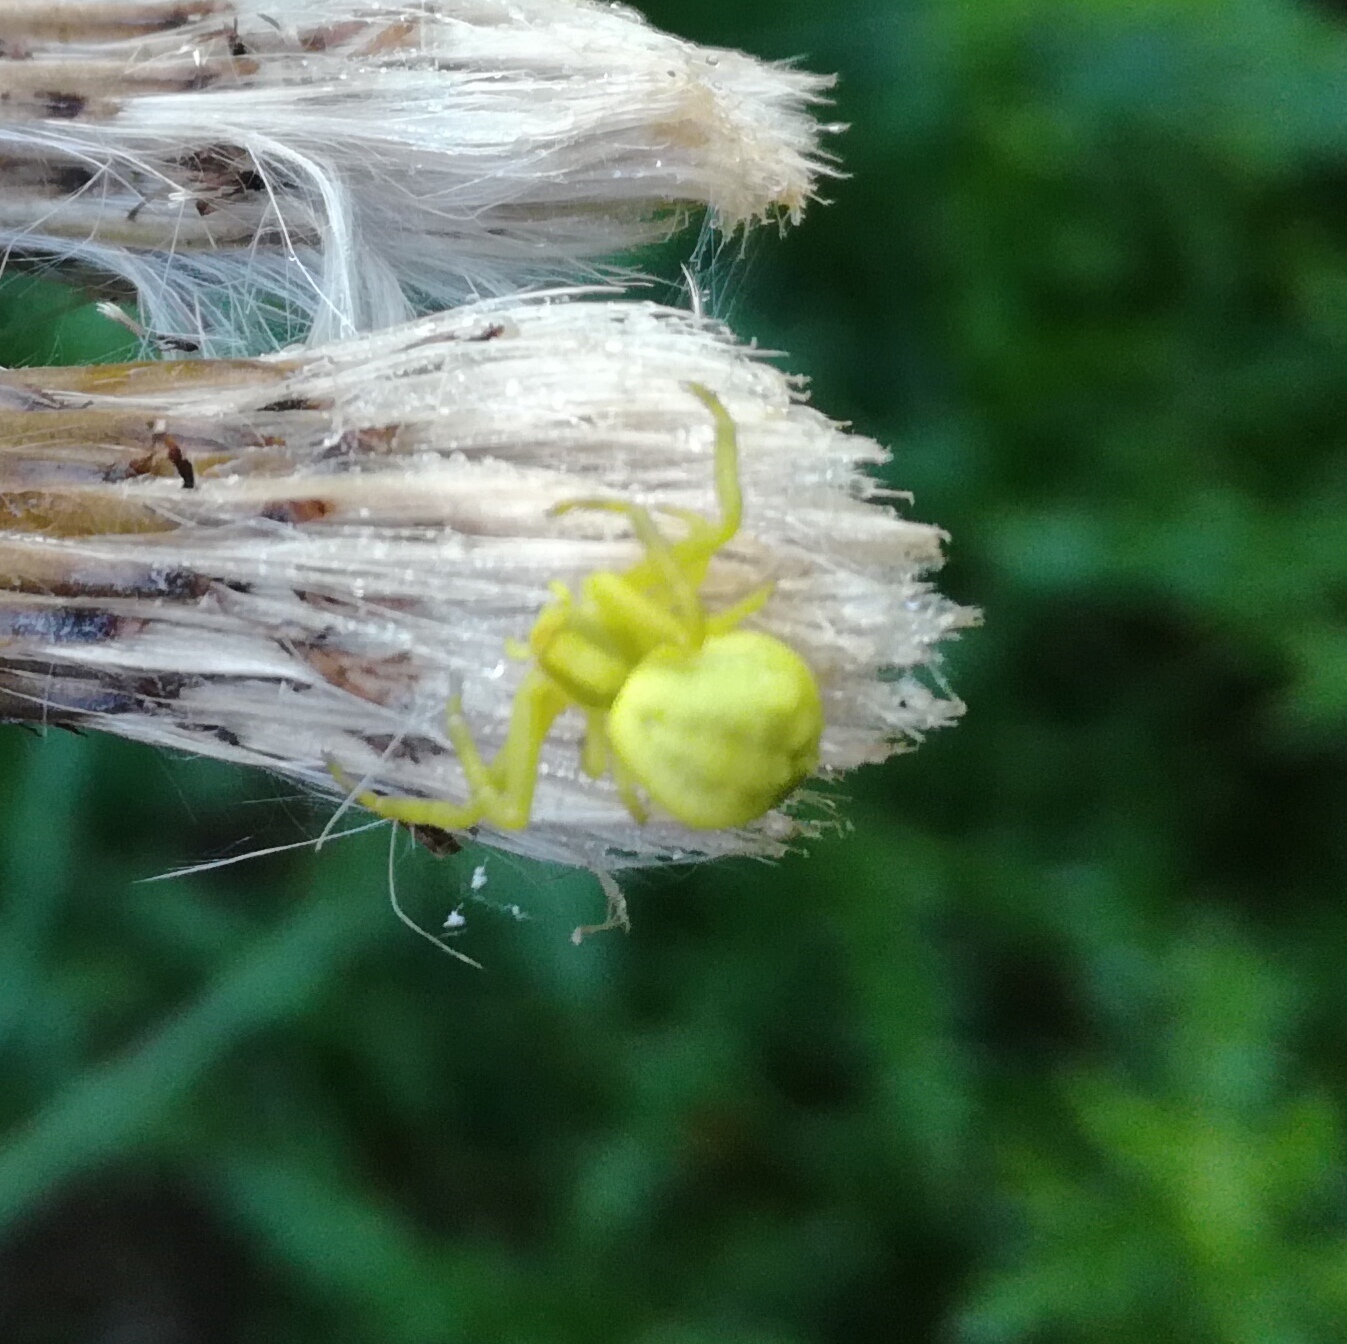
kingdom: Animalia
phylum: Arthropoda
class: Arachnida
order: Araneae
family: Thomisidae
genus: Misumena
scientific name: Misumena vatia
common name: Goldenrod crab spider
